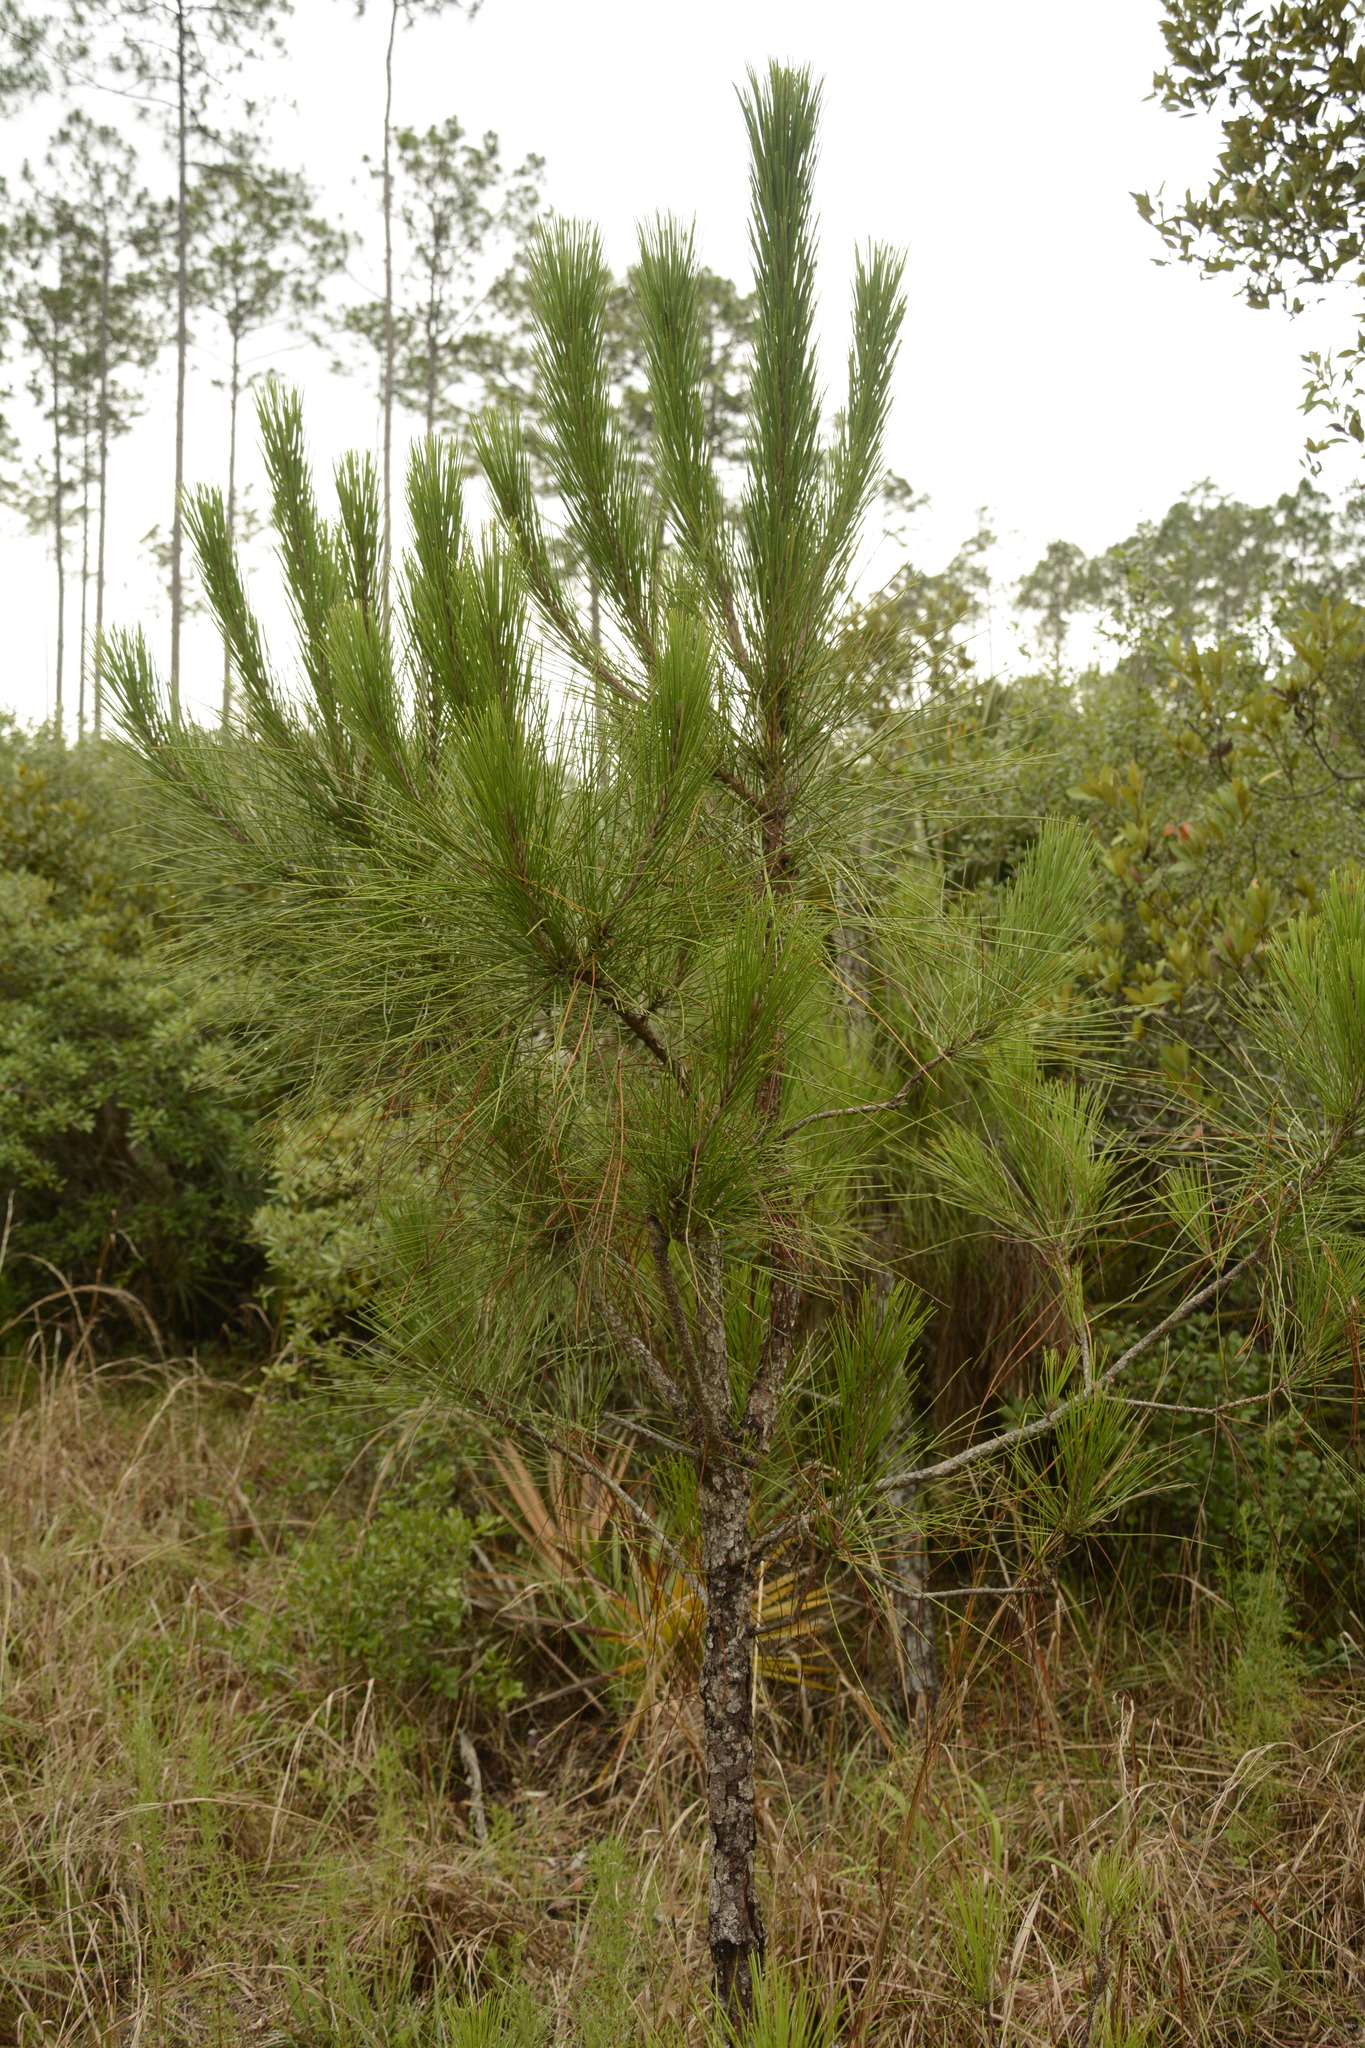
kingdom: Plantae
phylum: Tracheophyta
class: Pinopsida
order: Pinales
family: Pinaceae
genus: Pinus
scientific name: Pinus taeda
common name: Loblolly pine
